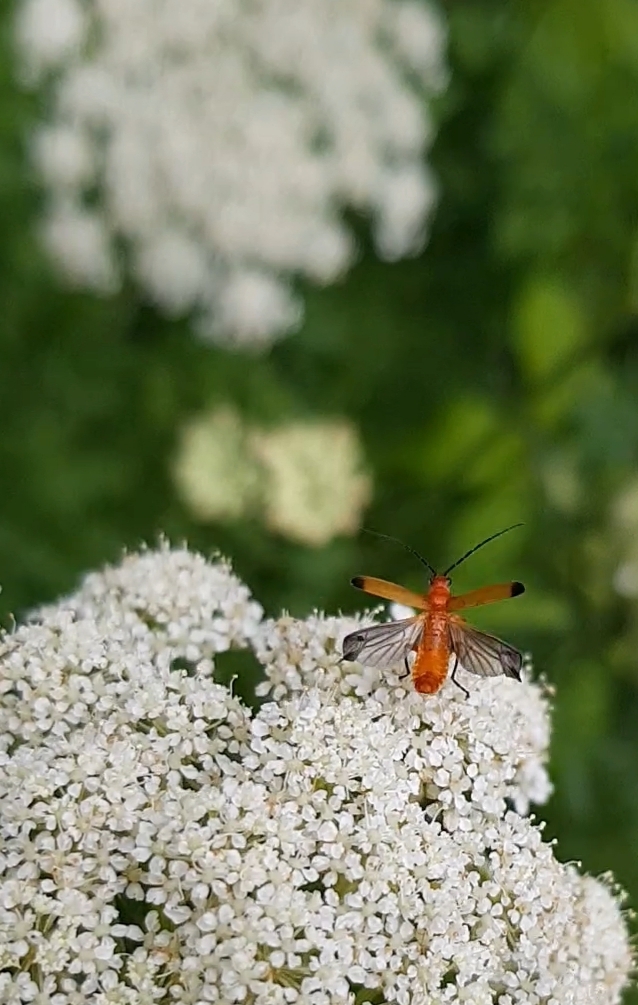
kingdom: Animalia
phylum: Arthropoda
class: Insecta
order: Coleoptera
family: Cantharidae
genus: Rhagonycha
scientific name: Rhagonycha fulva
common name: Common red soldier beetle
